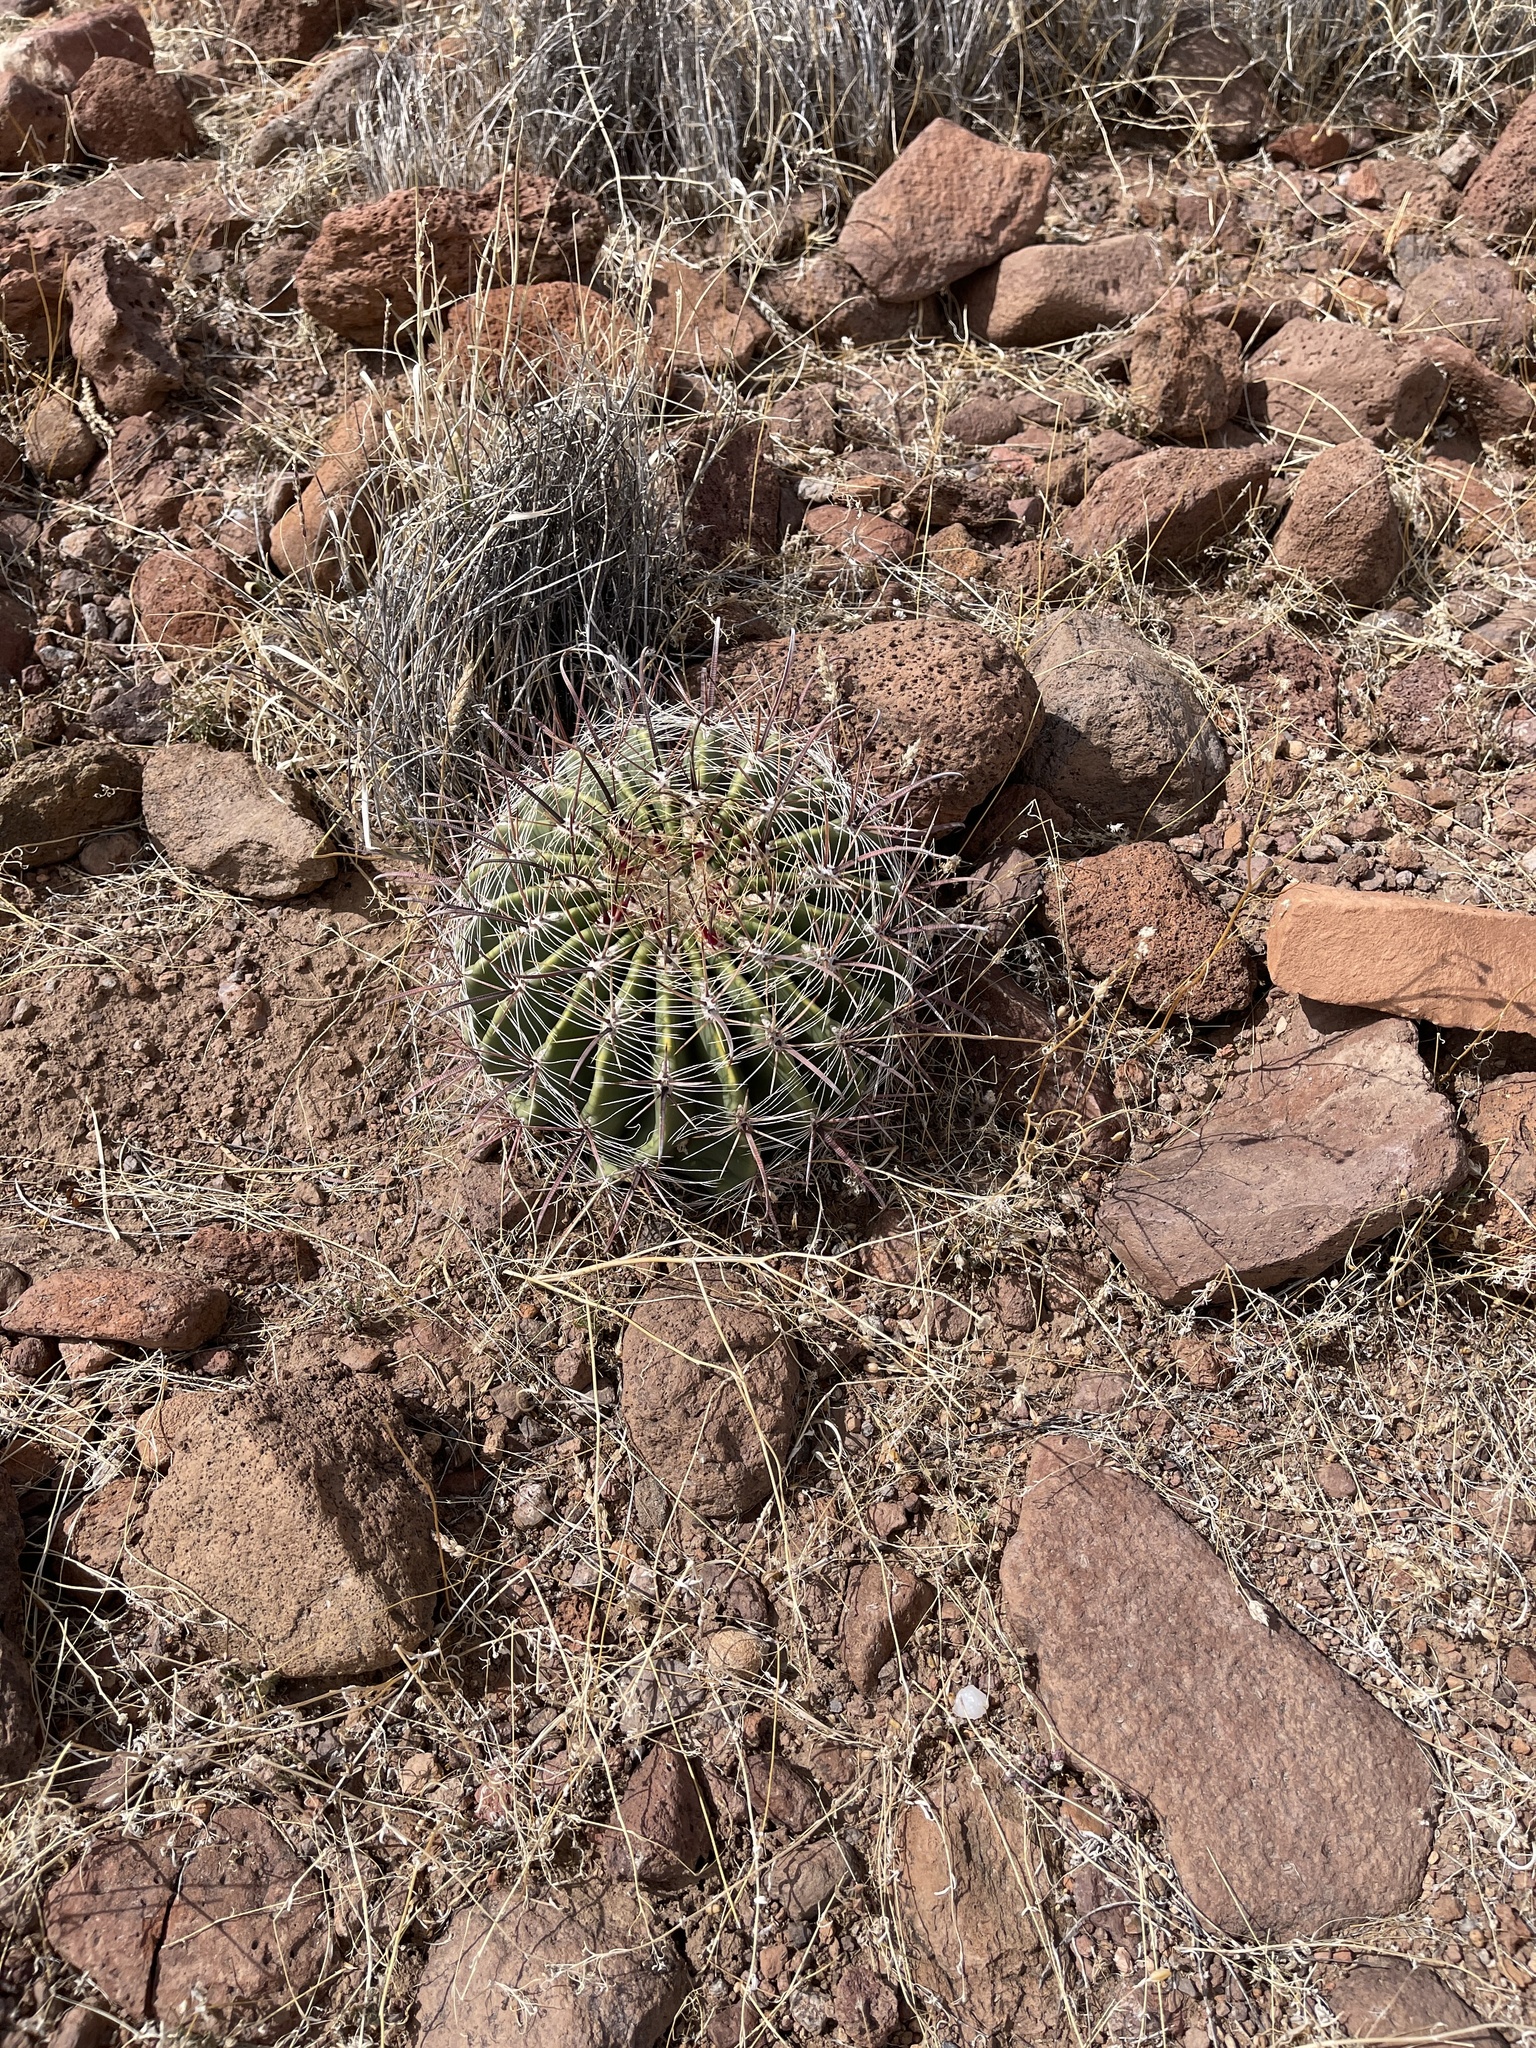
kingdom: Plantae
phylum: Tracheophyta
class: Magnoliopsida
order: Caryophyllales
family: Cactaceae
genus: Ferocactus
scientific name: Ferocactus wislizeni
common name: Candy barrel cactus
